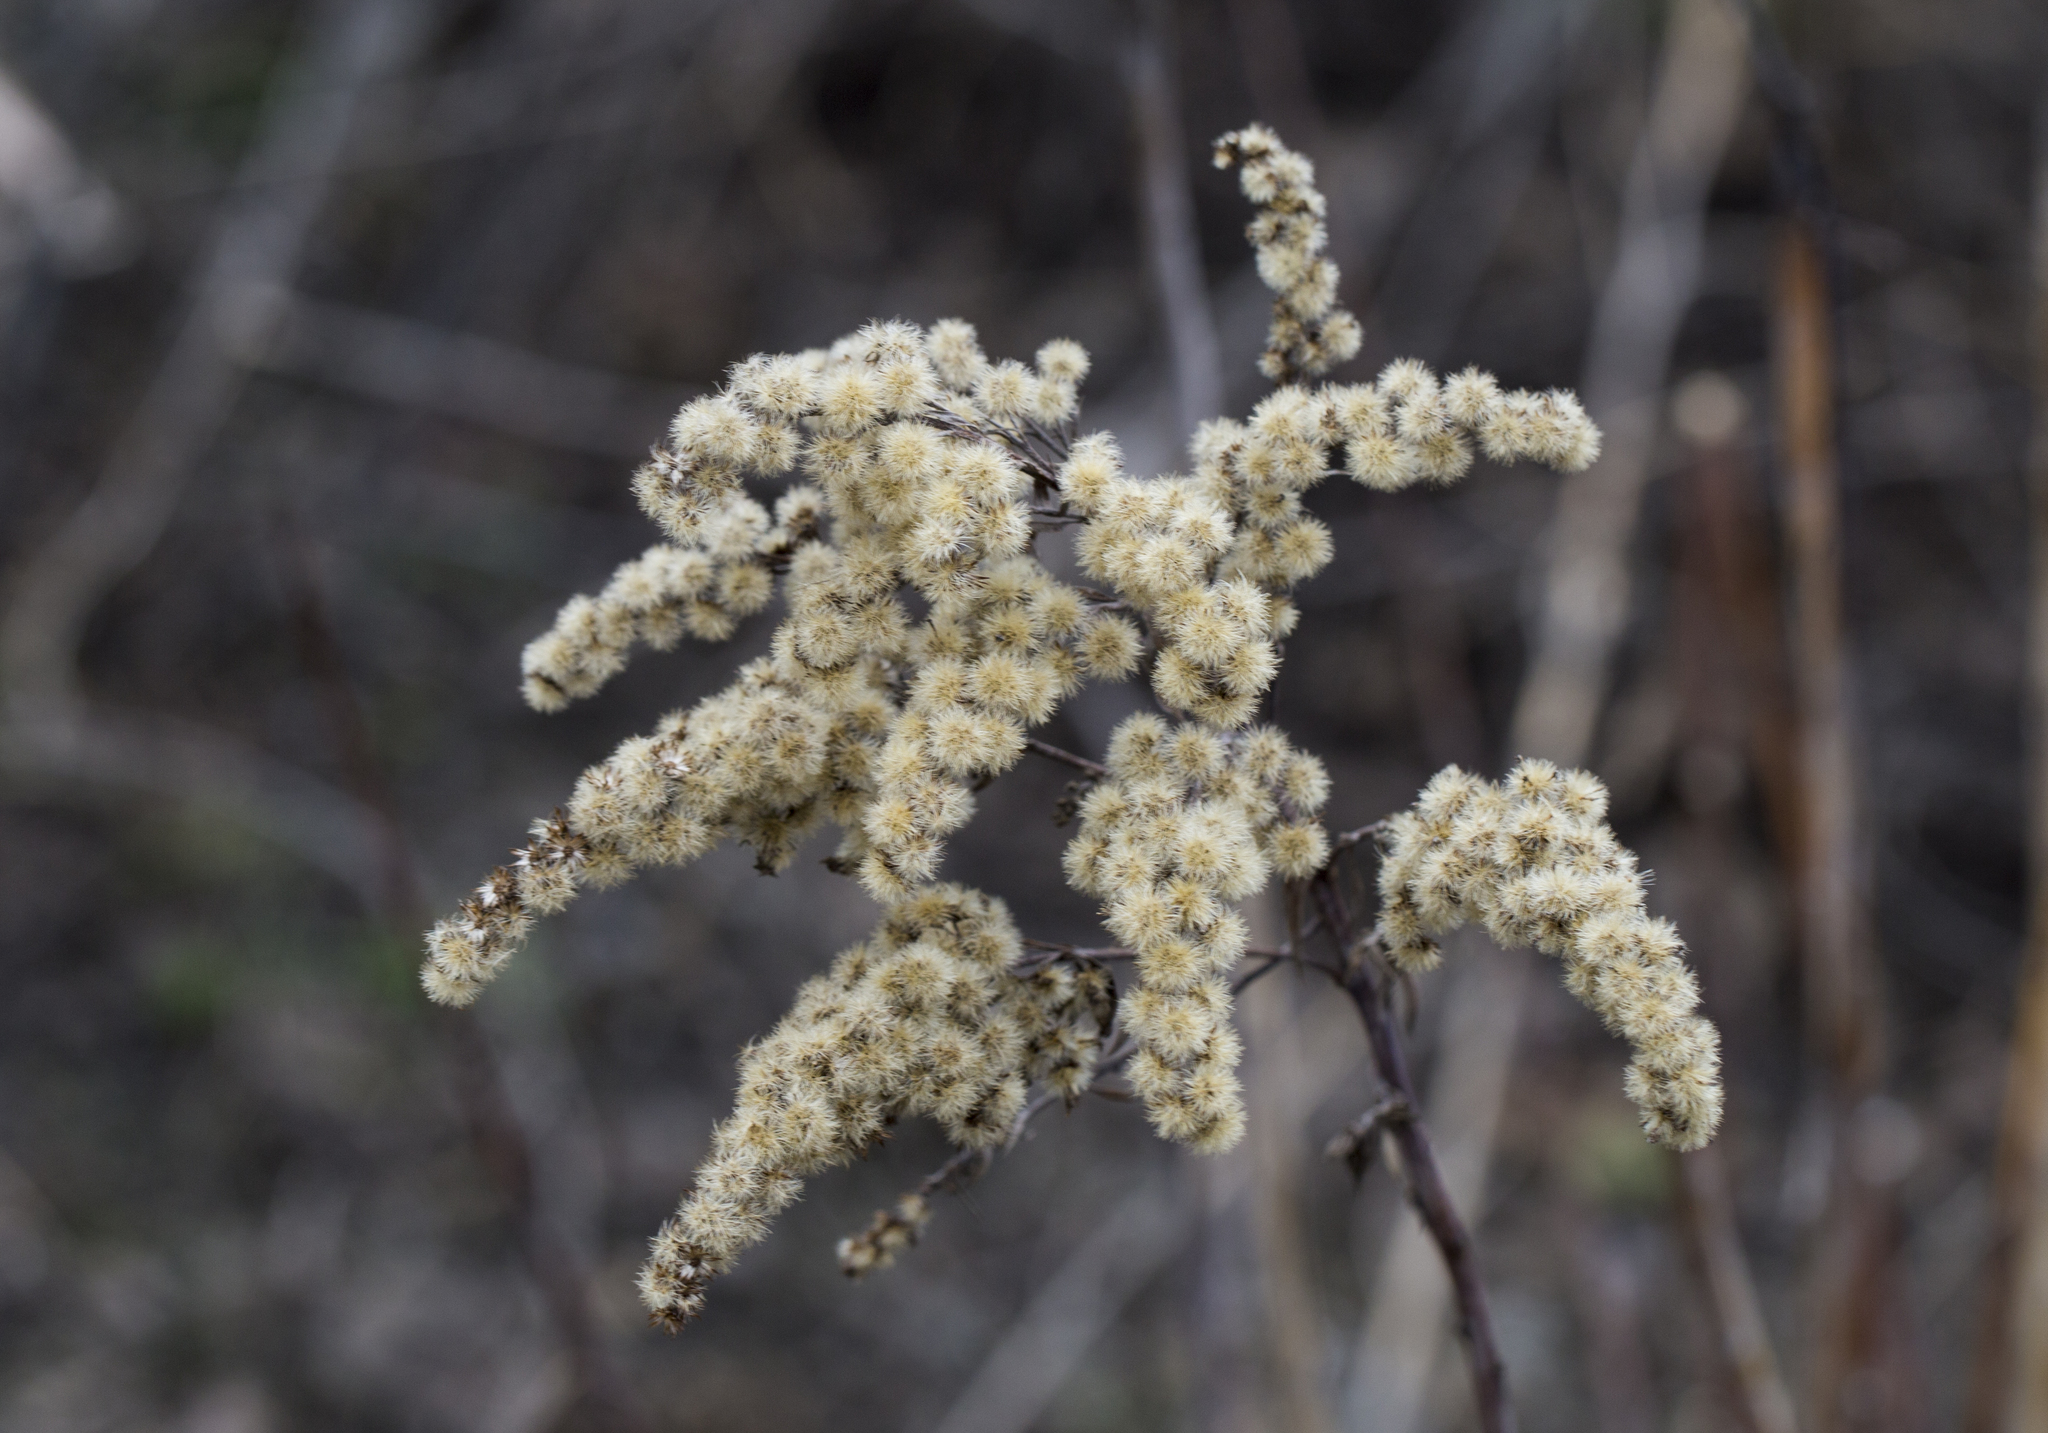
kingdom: Plantae
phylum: Tracheophyta
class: Magnoliopsida
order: Asterales
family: Asteraceae
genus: Solidago
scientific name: Solidago gigantea
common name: Giant goldenrod
